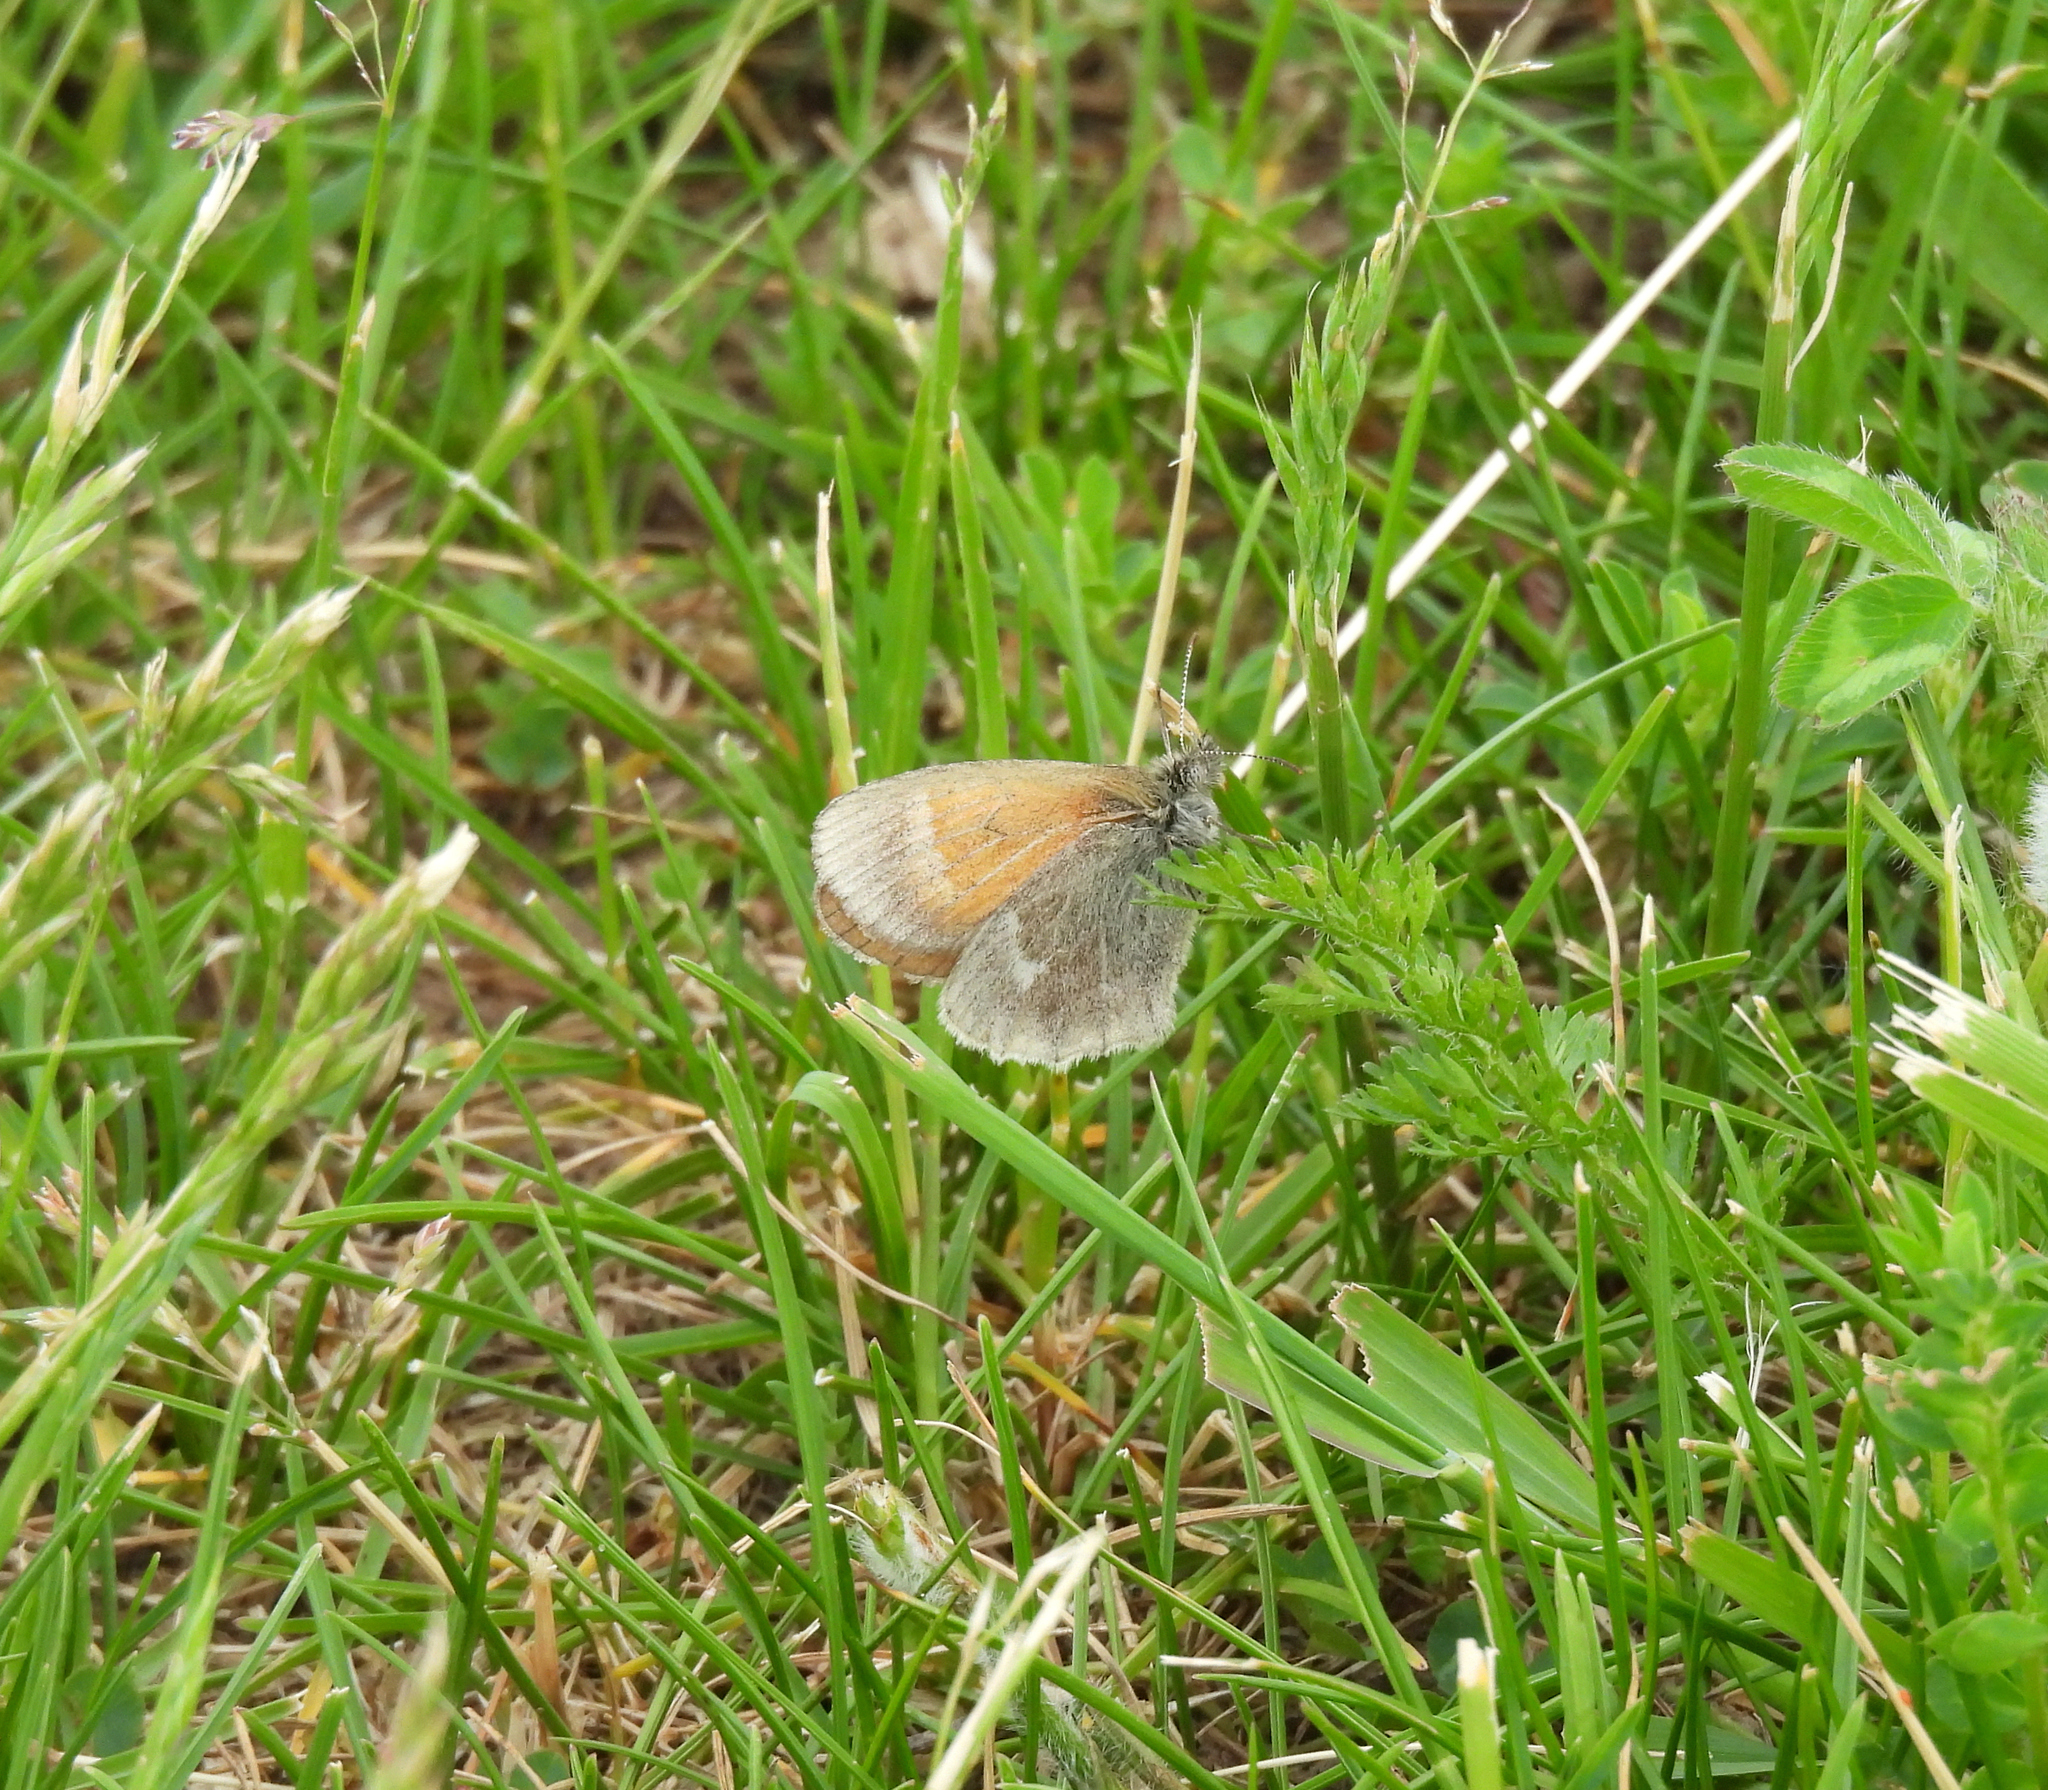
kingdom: Animalia
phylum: Arthropoda
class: Insecta
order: Lepidoptera
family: Nymphalidae
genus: Coenonympha
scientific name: Coenonympha california
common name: Common ringlet
